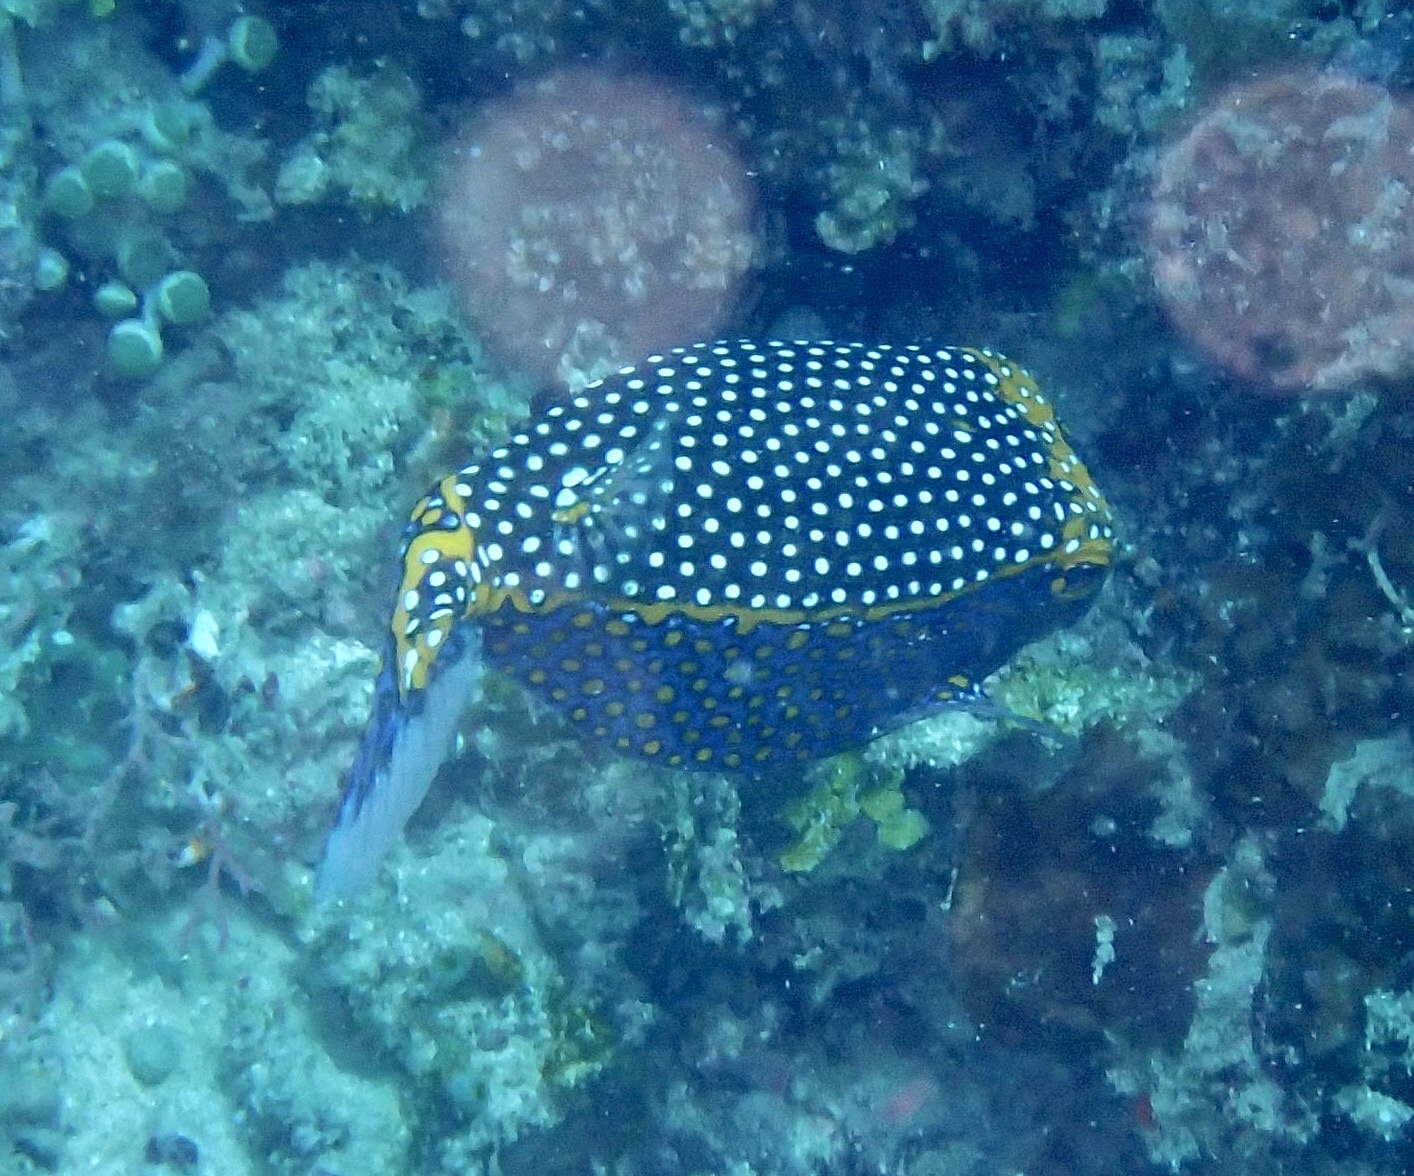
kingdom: Animalia
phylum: Chordata
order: Tetraodontiformes
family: Ostraciidae
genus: Ostracion
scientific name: Ostracion meleagris
